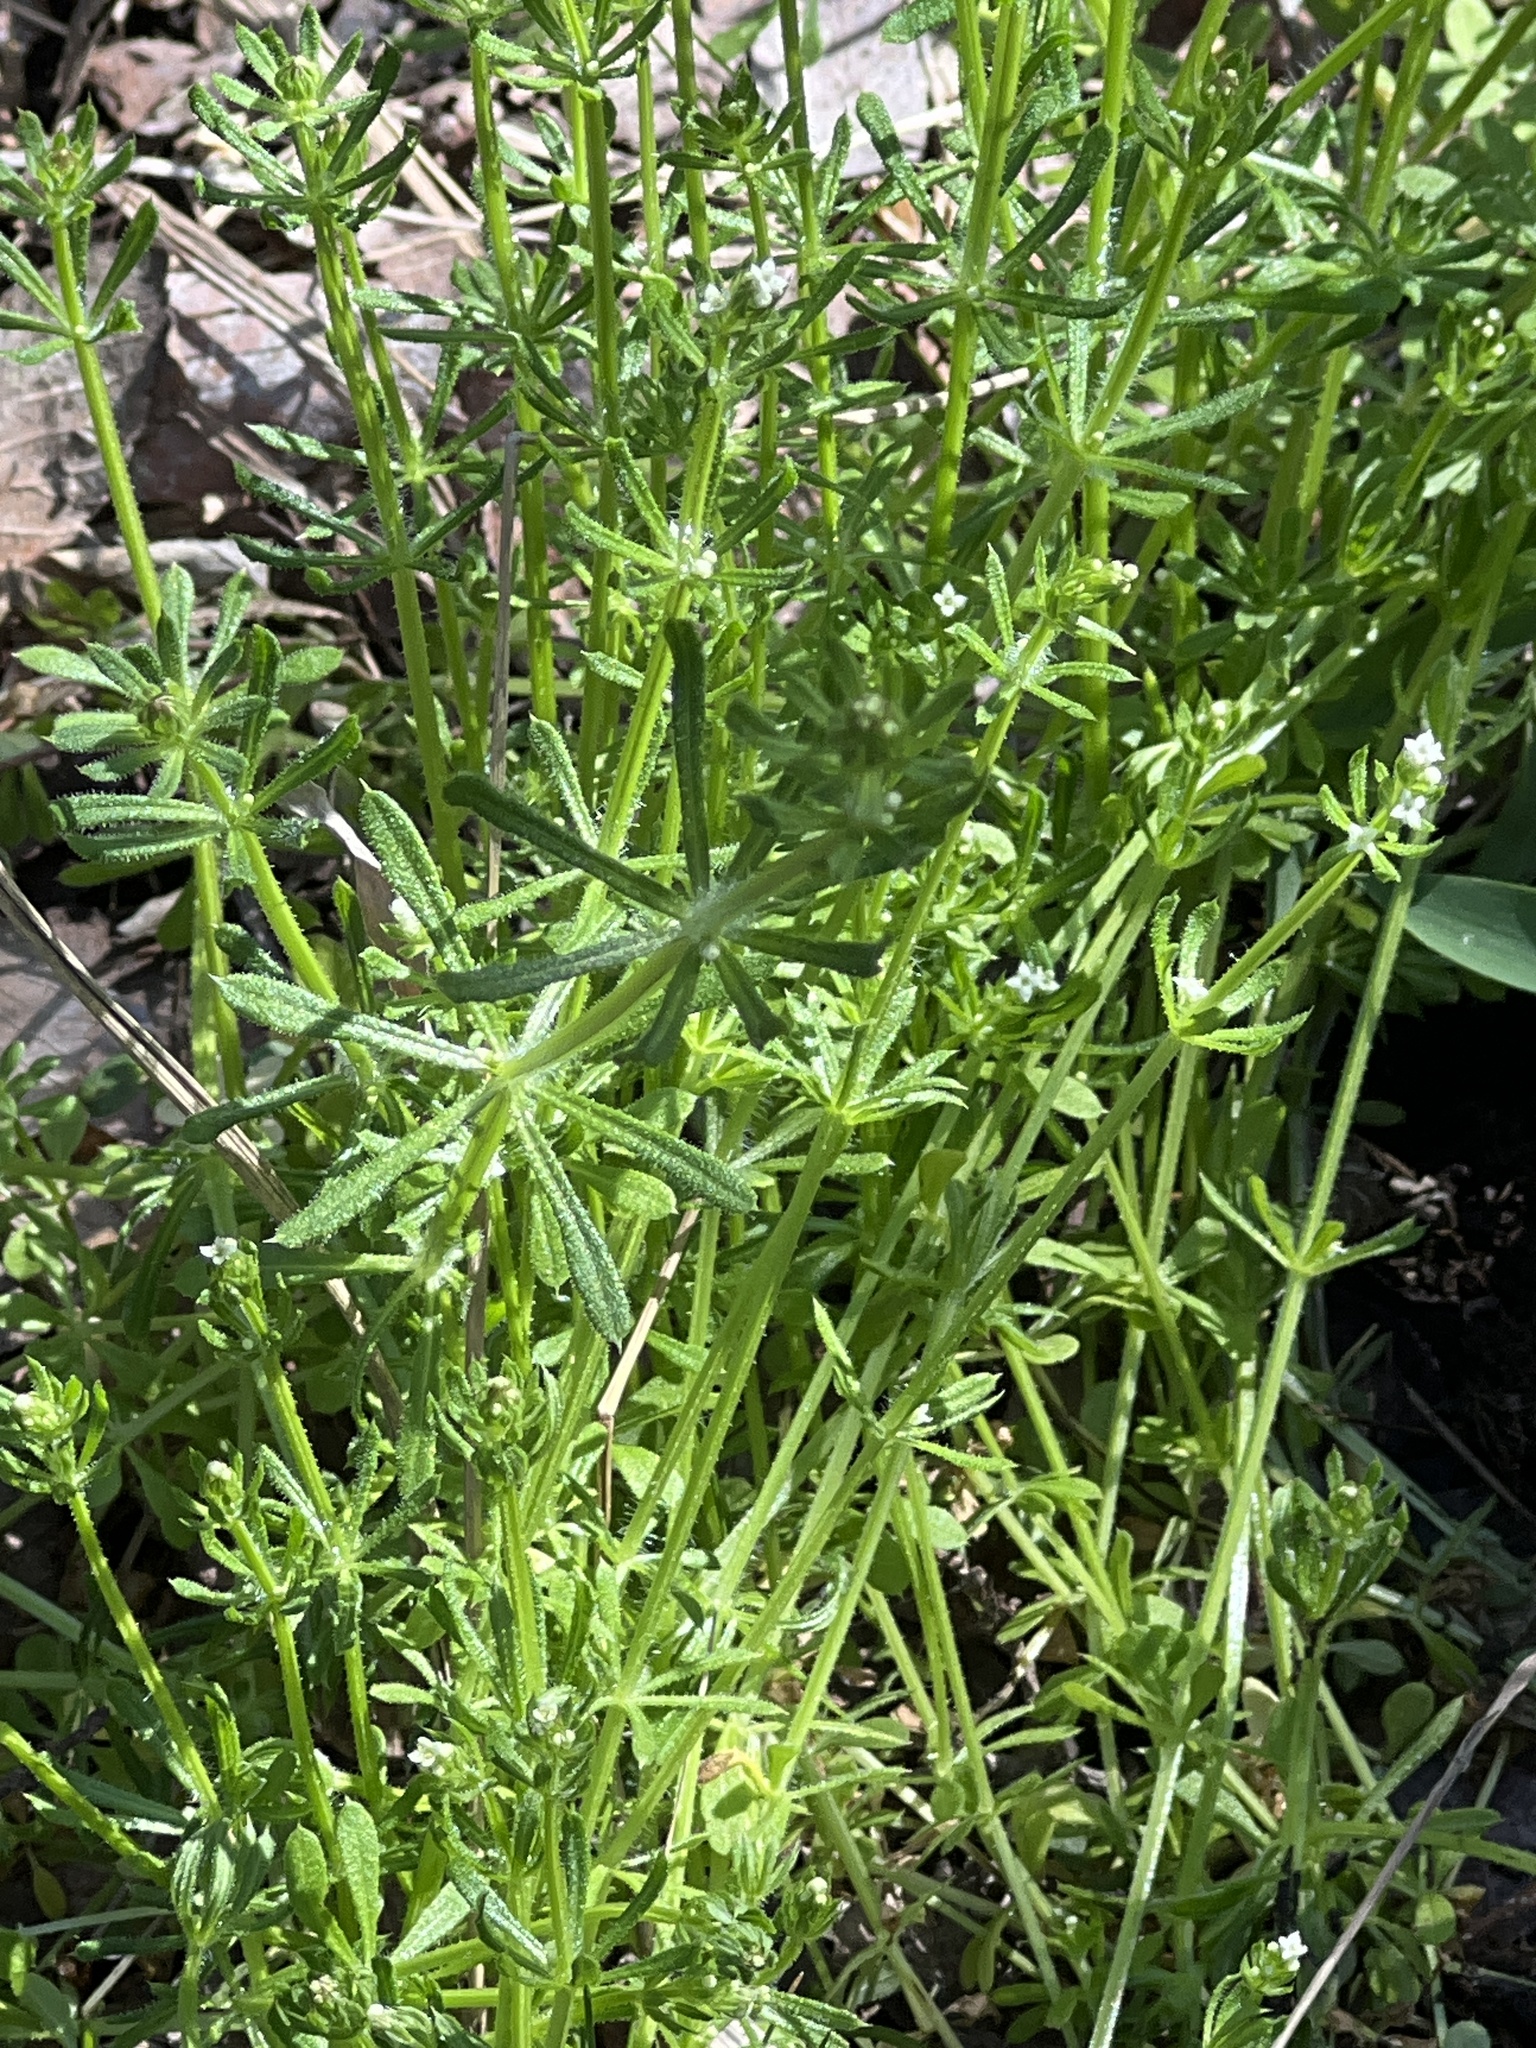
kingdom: Plantae
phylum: Tracheophyta
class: Magnoliopsida
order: Gentianales
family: Rubiaceae
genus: Galium
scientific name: Galium aparine
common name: Cleavers
